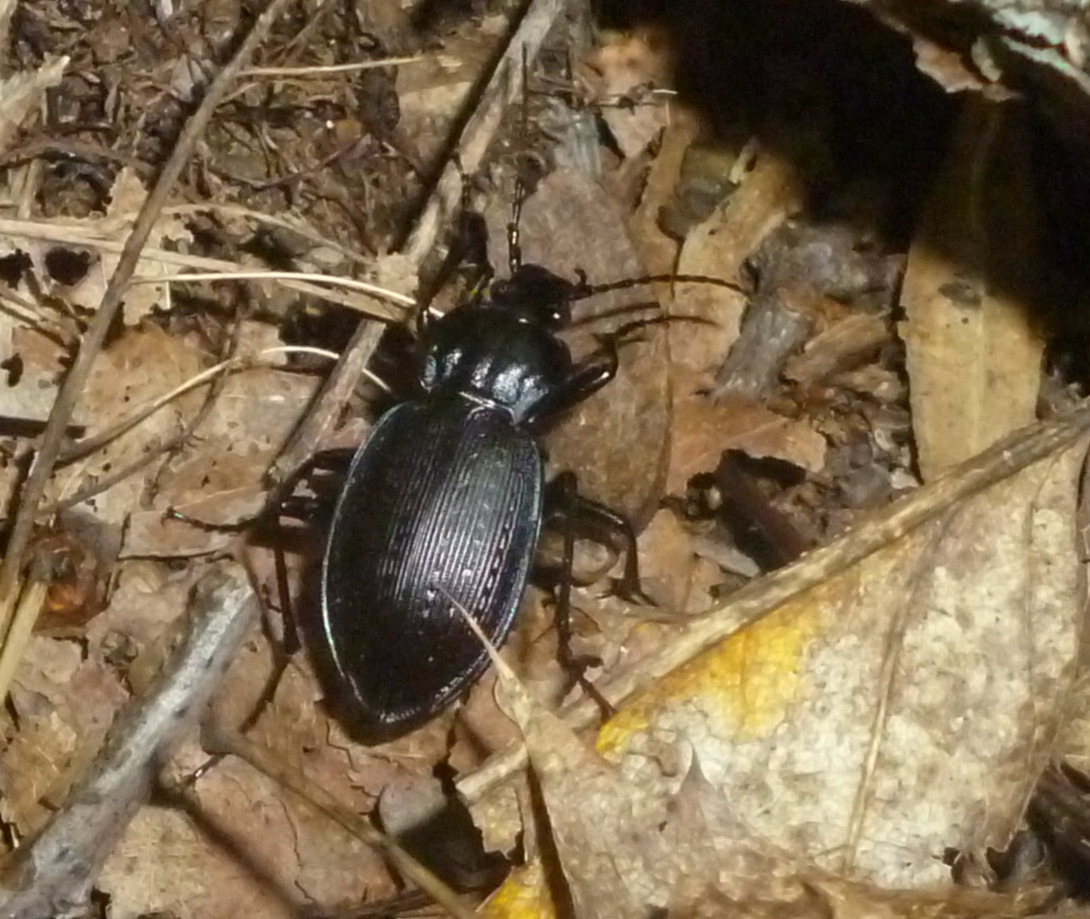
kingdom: Animalia
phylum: Arthropoda
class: Insecta
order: Coleoptera
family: Carabidae
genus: Carabus
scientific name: Carabus goryi
